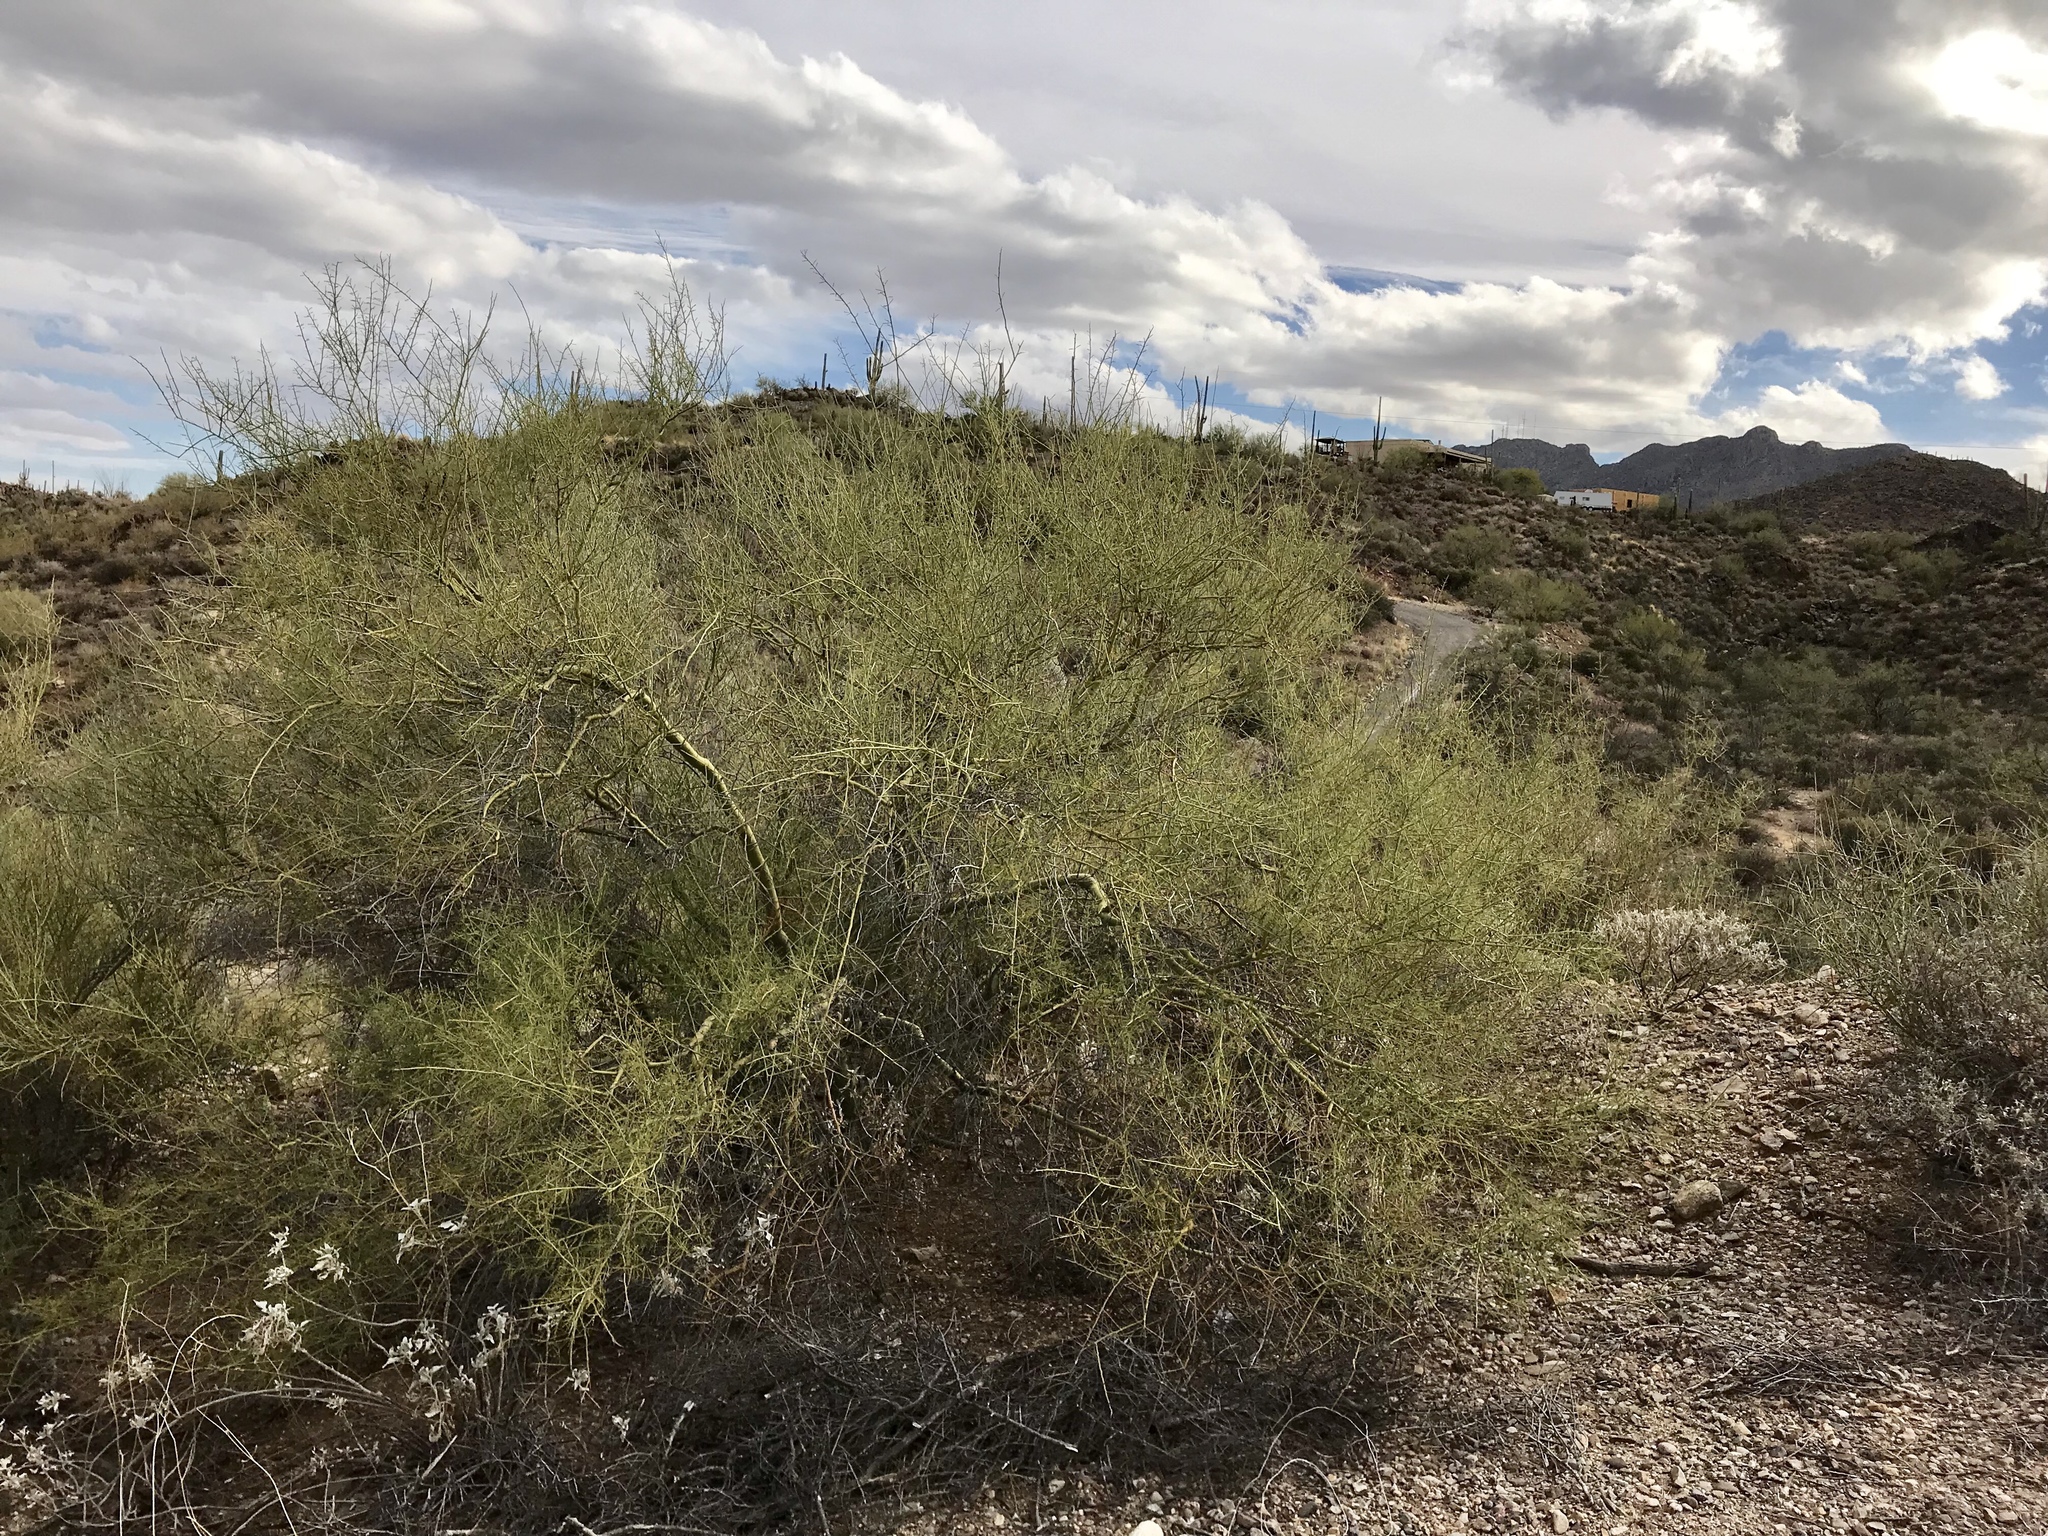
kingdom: Plantae
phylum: Tracheophyta
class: Magnoliopsida
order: Fabales
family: Fabaceae
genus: Parkinsonia
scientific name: Parkinsonia microphylla
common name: Yellow paloverde
